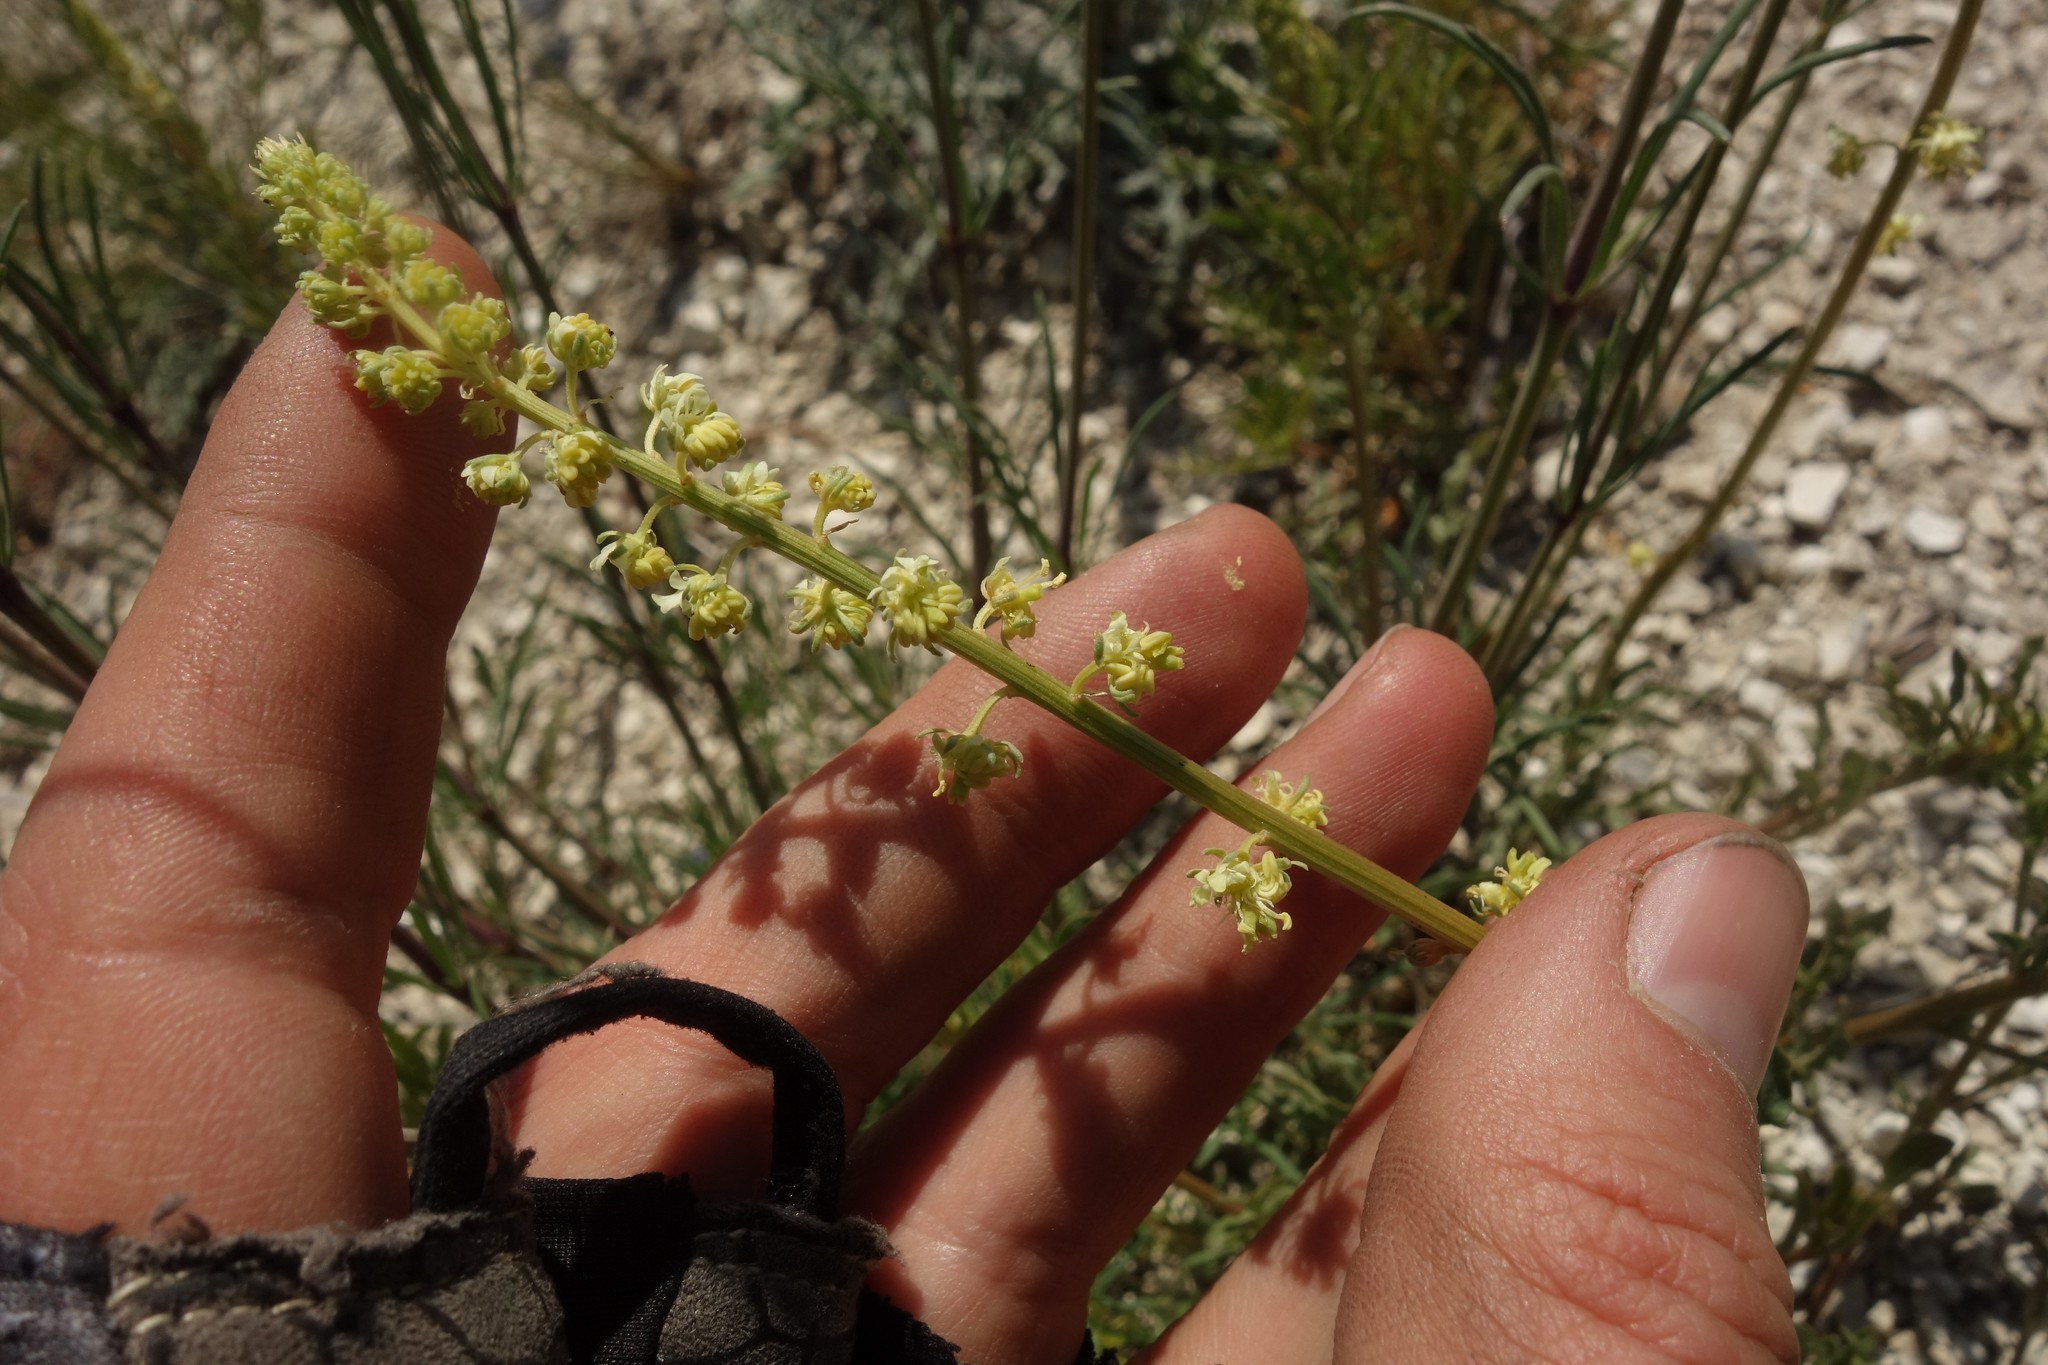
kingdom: Plantae
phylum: Tracheophyta
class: Magnoliopsida
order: Brassicales
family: Resedaceae
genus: Reseda
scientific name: Reseda lutea
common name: Wild mignonette
